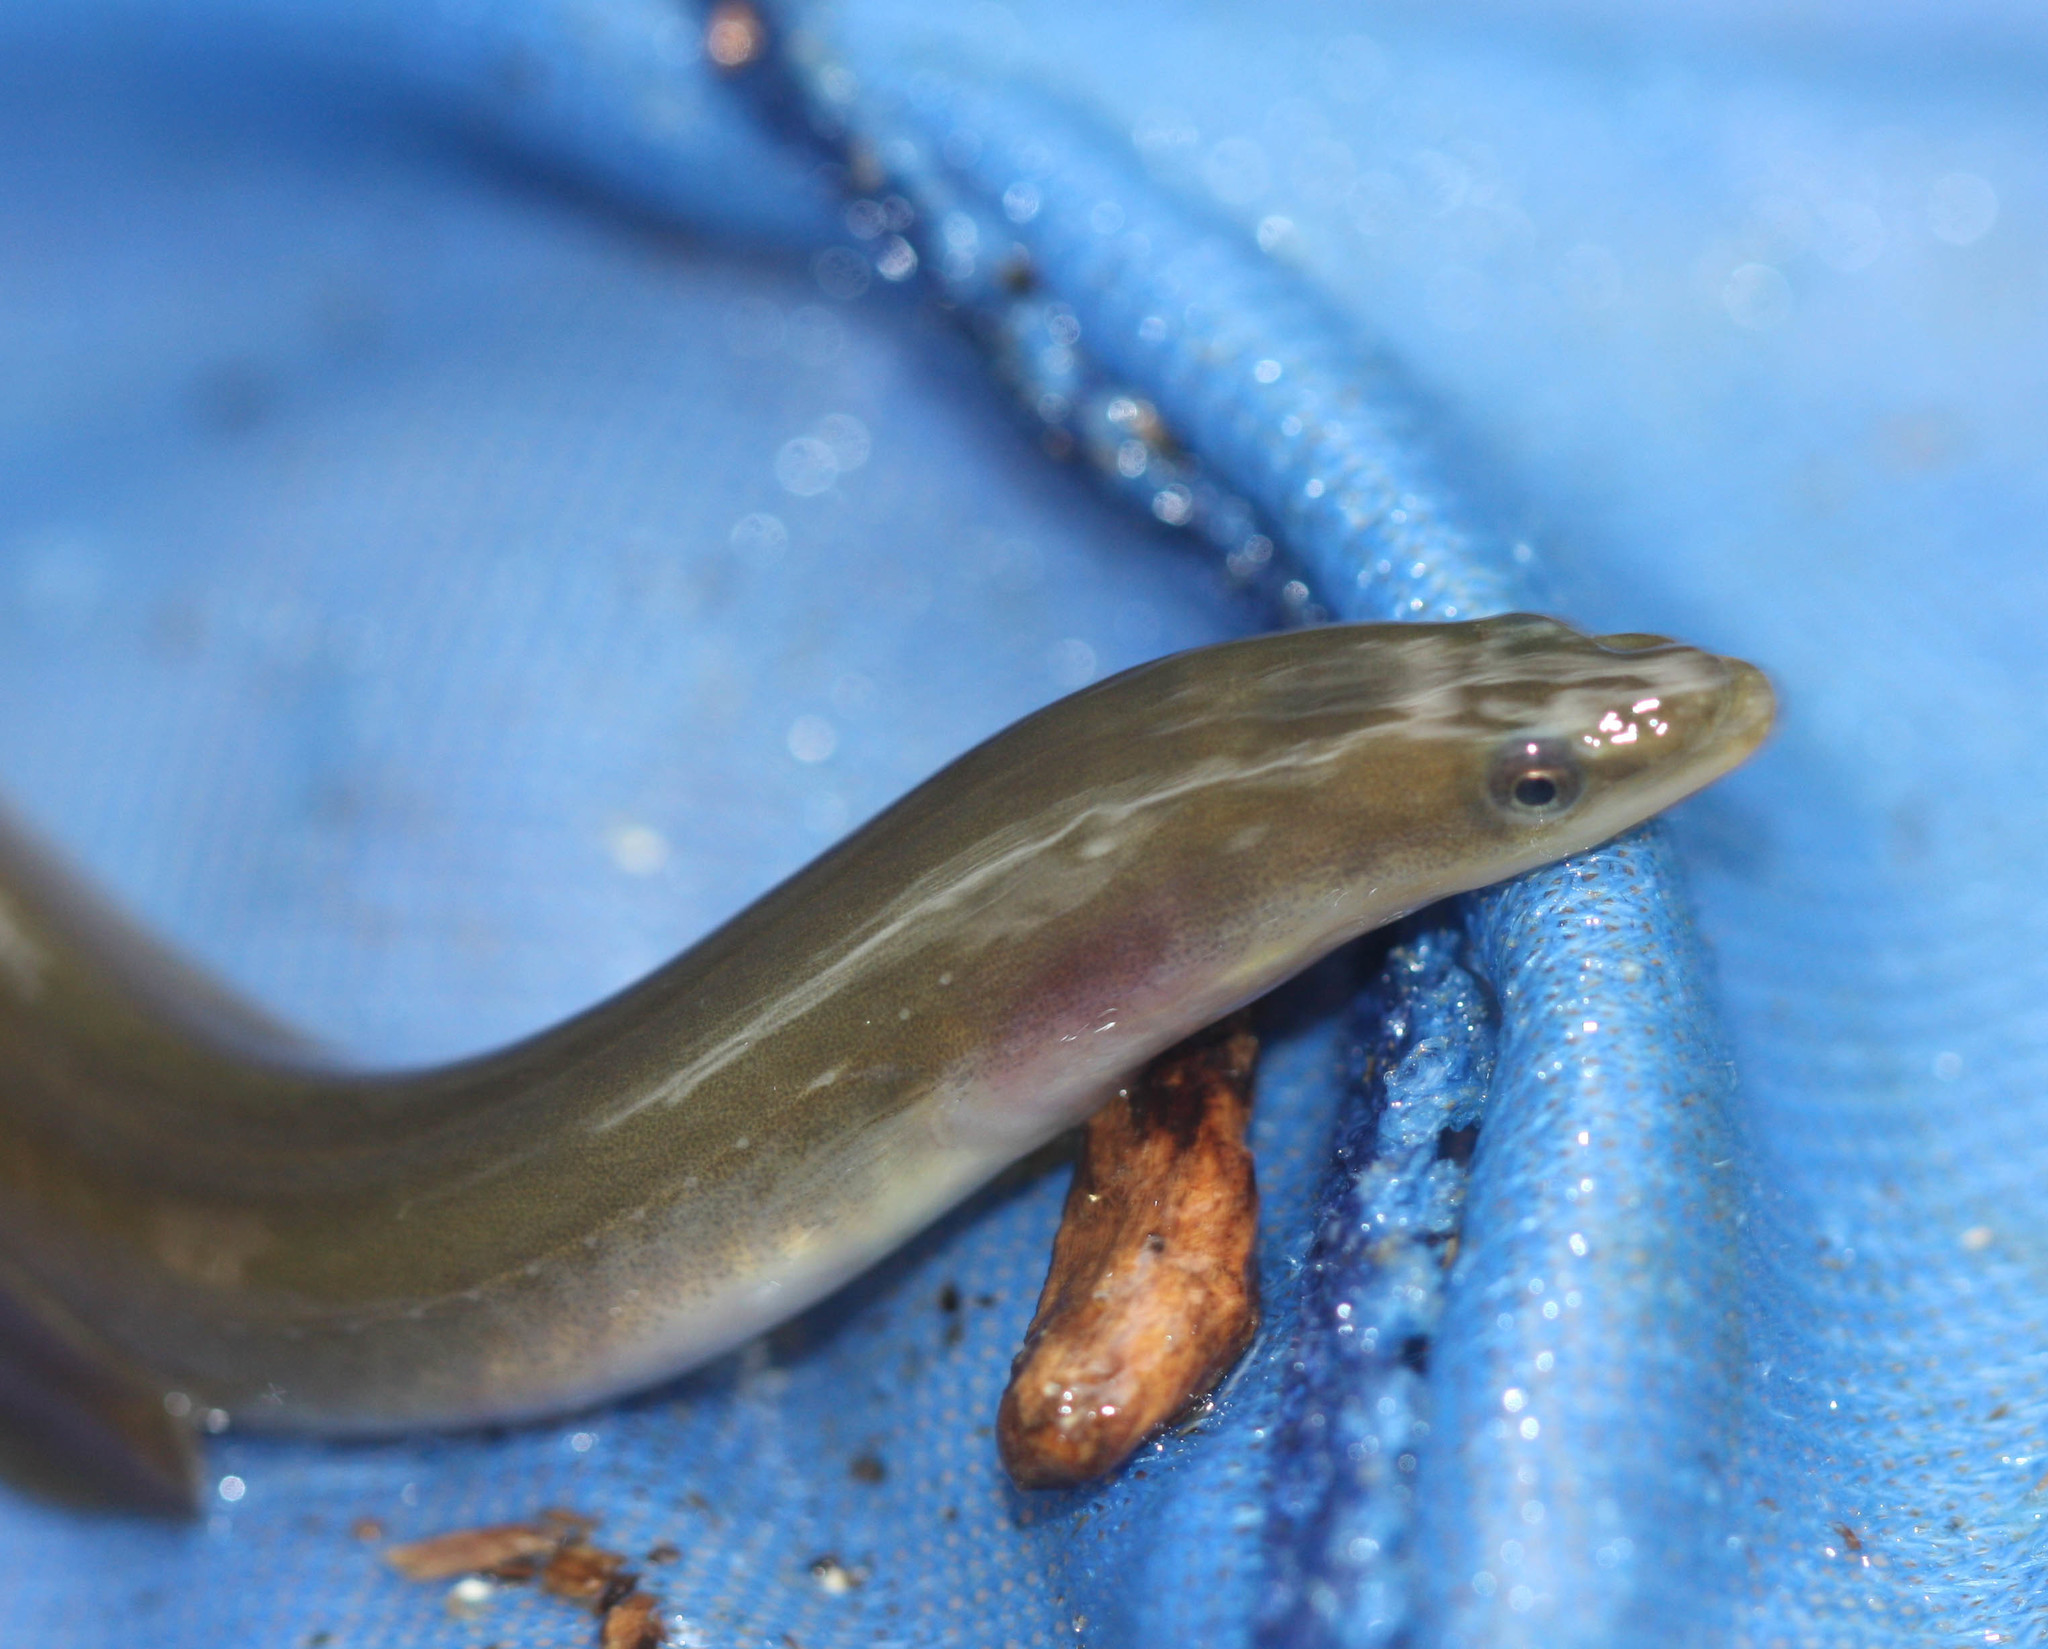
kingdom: Animalia
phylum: Chordata
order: Anguilliformes
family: Anguillidae
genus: Anguilla
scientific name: Anguilla rostrata
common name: American eel
